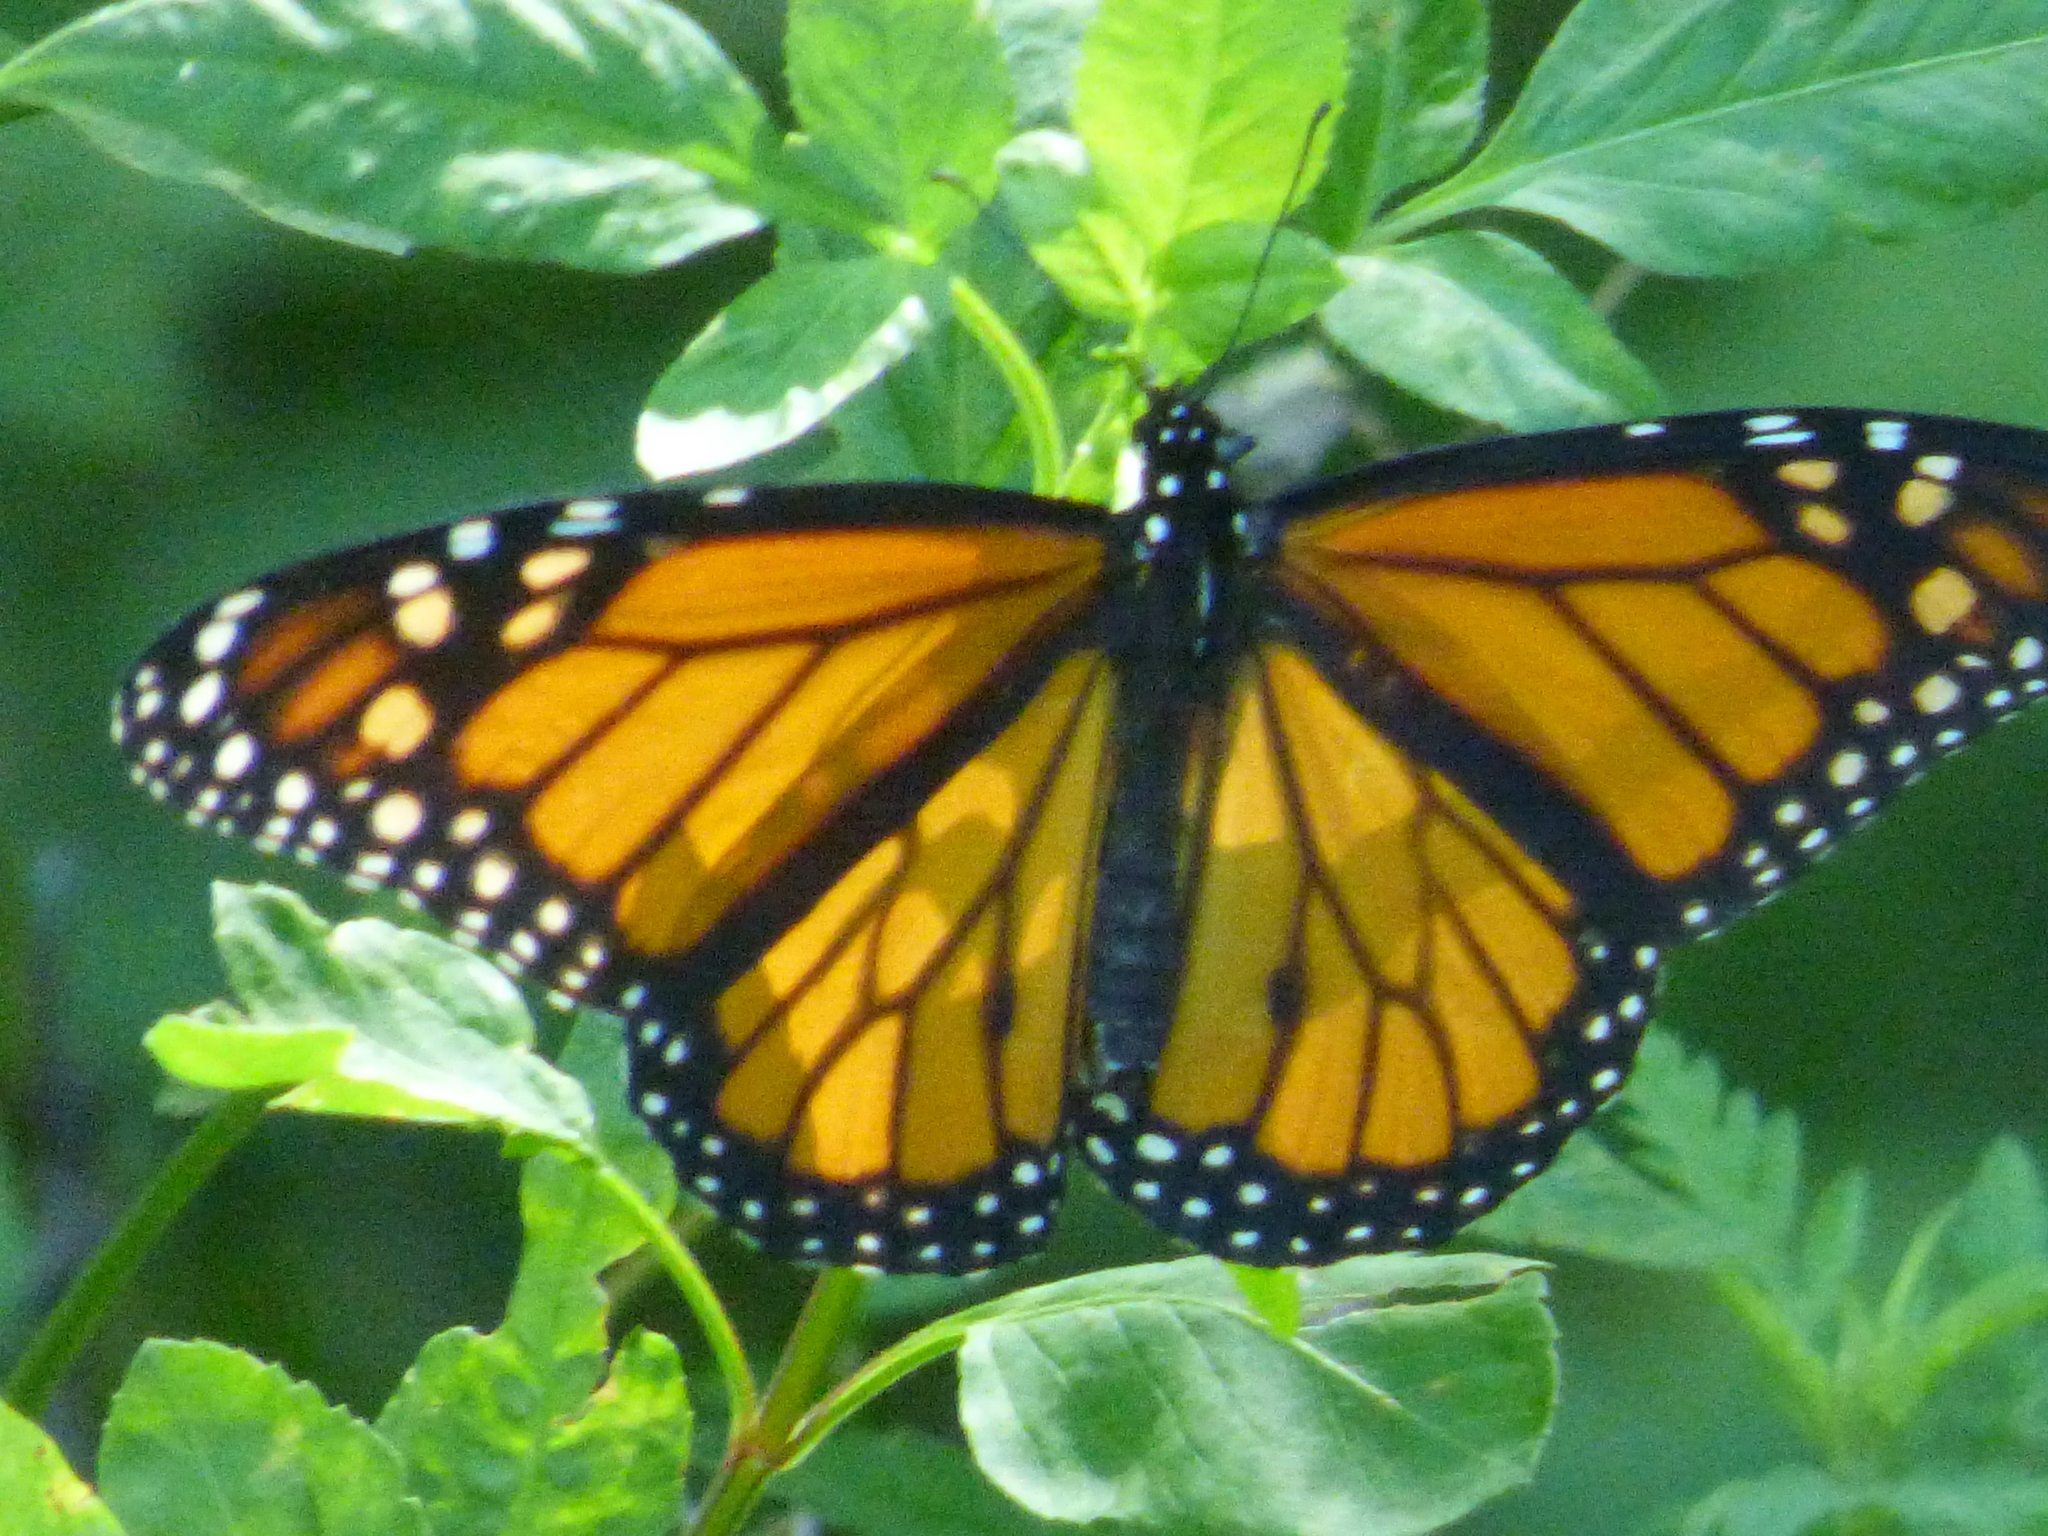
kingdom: Animalia
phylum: Arthropoda
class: Insecta
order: Lepidoptera
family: Nymphalidae
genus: Danaus
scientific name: Danaus plexippus
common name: Monarch
